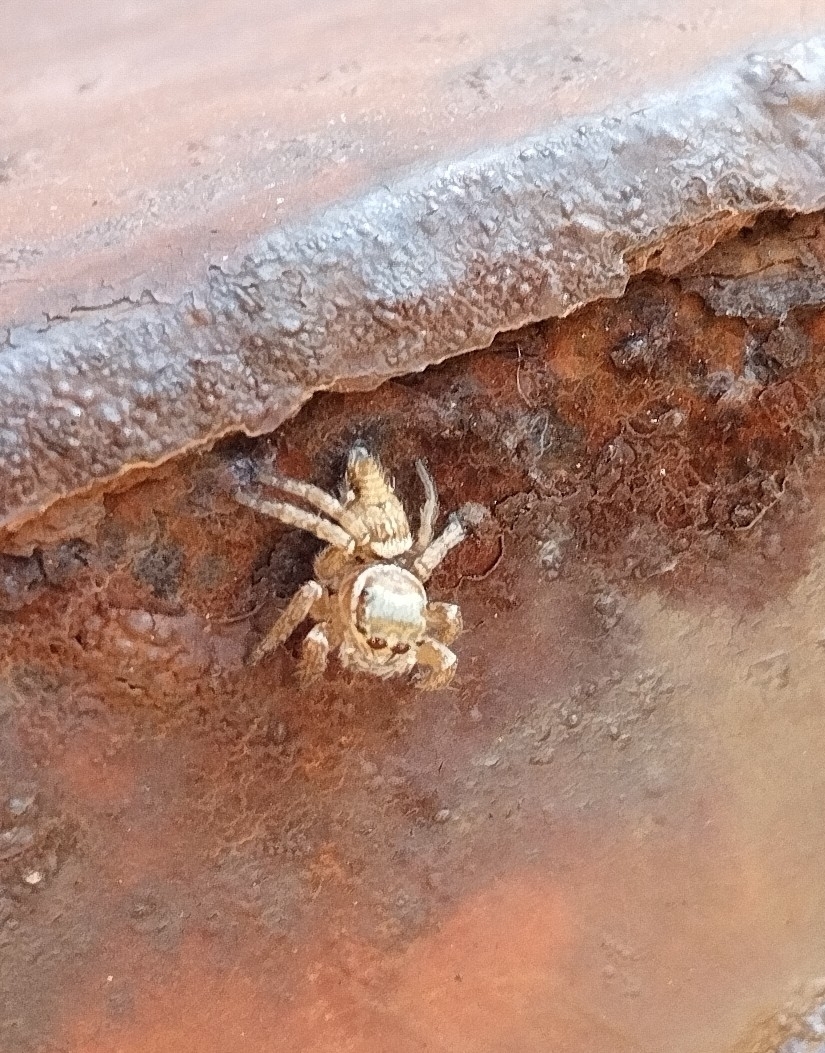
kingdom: Animalia
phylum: Arthropoda
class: Arachnida
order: Araneae
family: Salticidae
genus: Evarcha
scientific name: Evarcha jucunda
